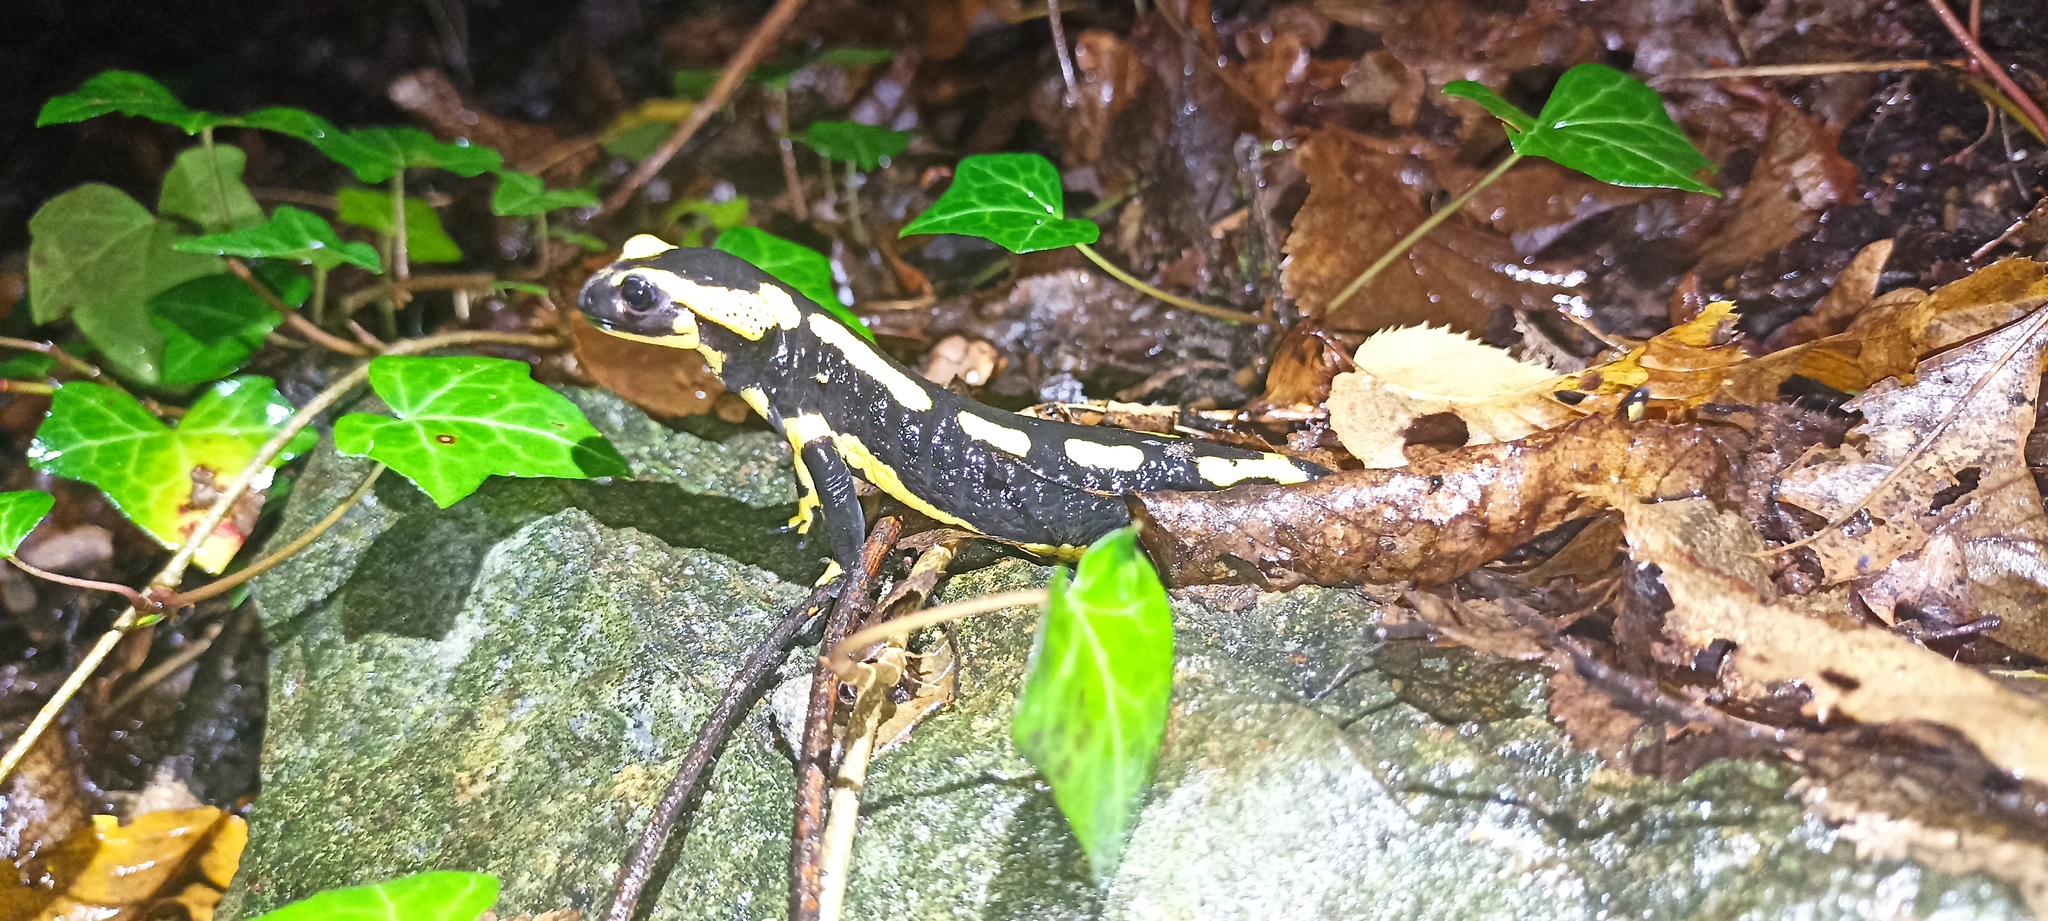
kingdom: Animalia
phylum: Chordata
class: Amphibia
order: Caudata
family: Salamandridae
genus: Salamandra
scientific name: Salamandra salamandra
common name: Fire salamander
